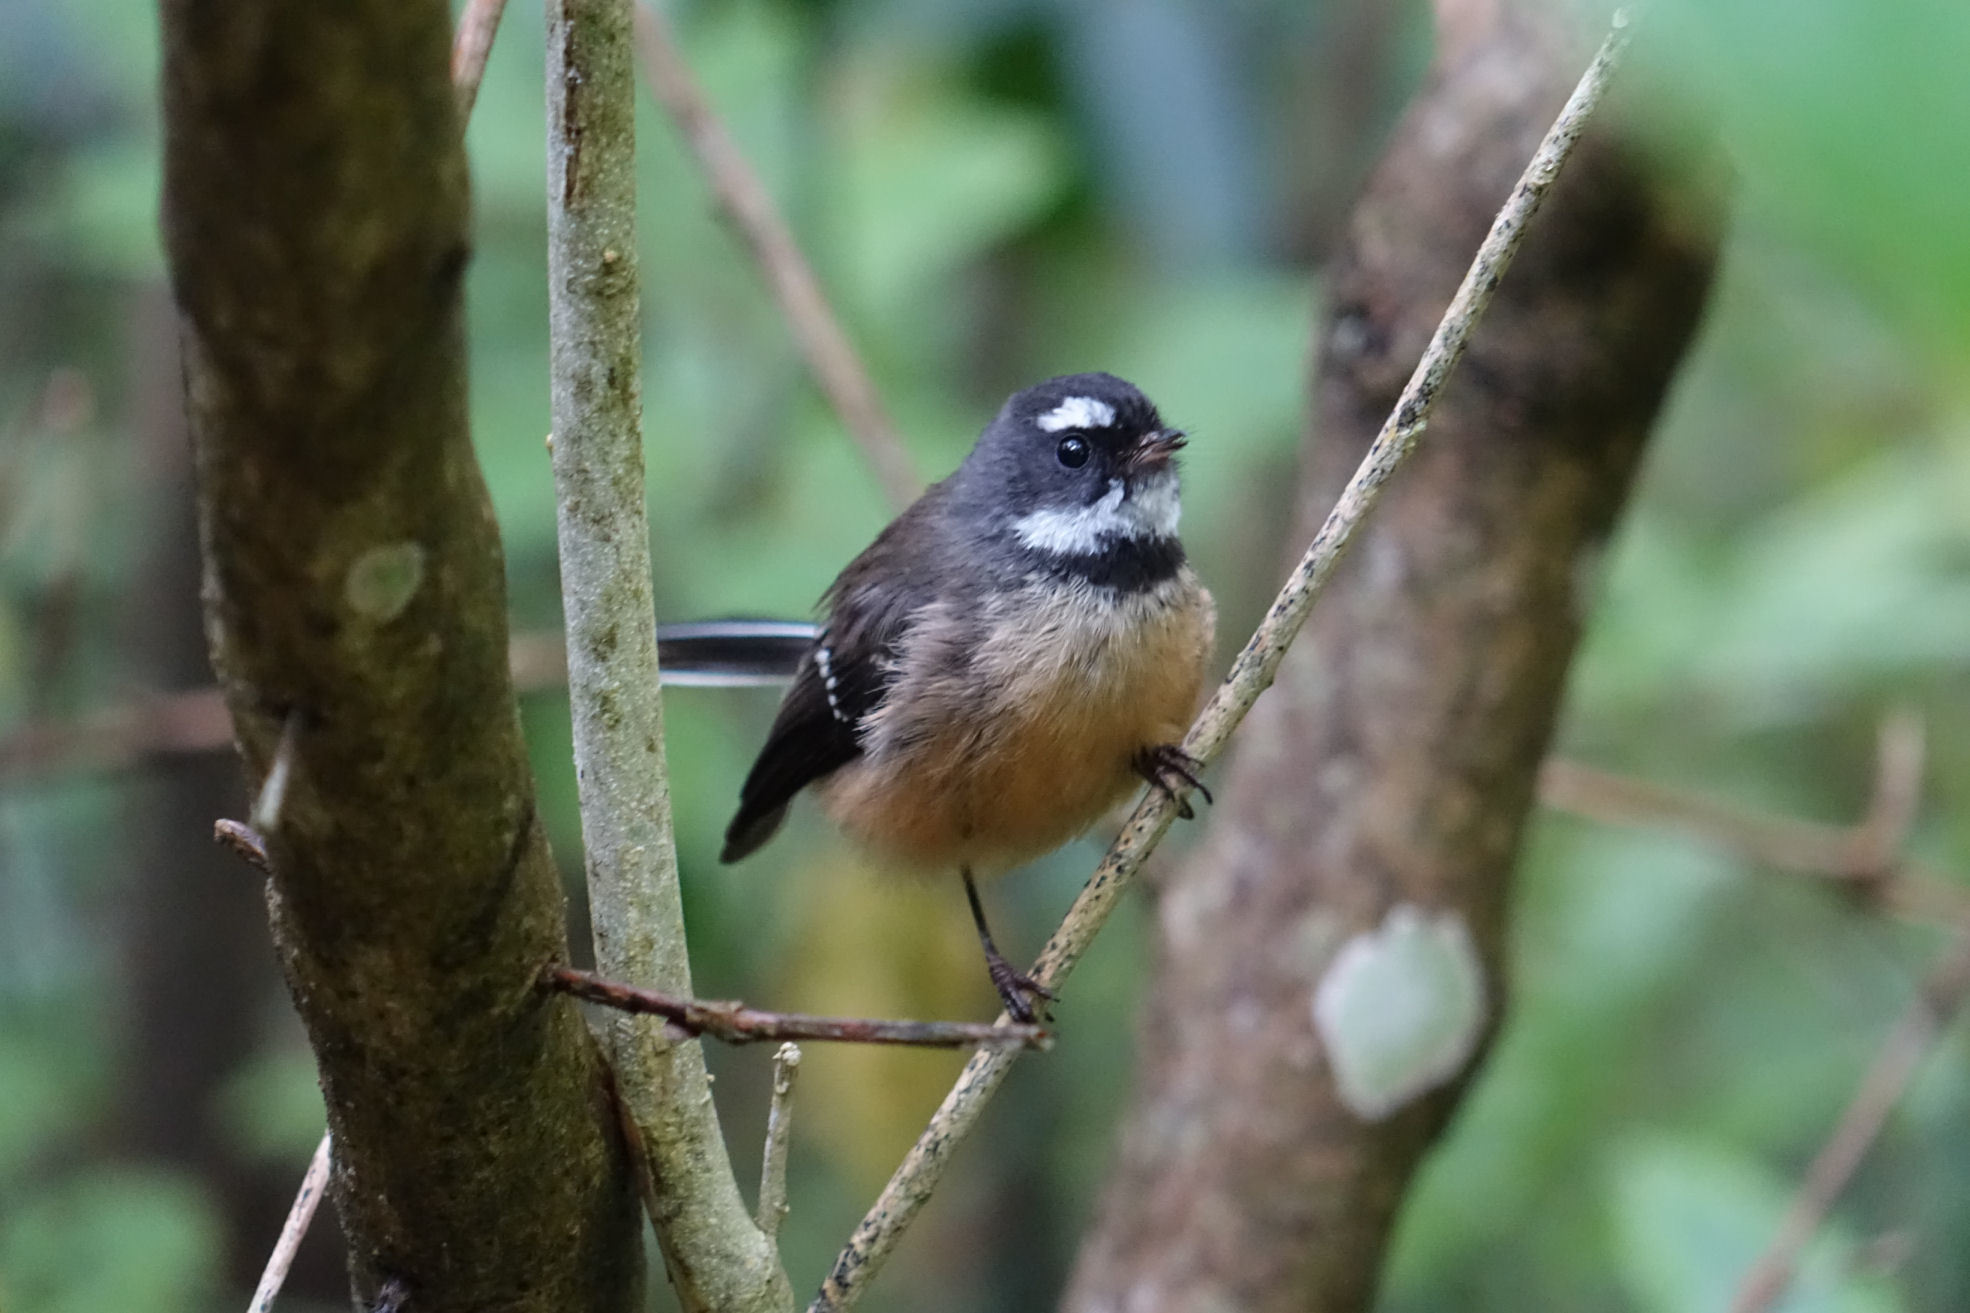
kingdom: Animalia
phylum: Chordata
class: Aves
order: Passeriformes
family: Rhipiduridae
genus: Rhipidura
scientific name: Rhipidura fuliginosa
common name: New zealand fantail
